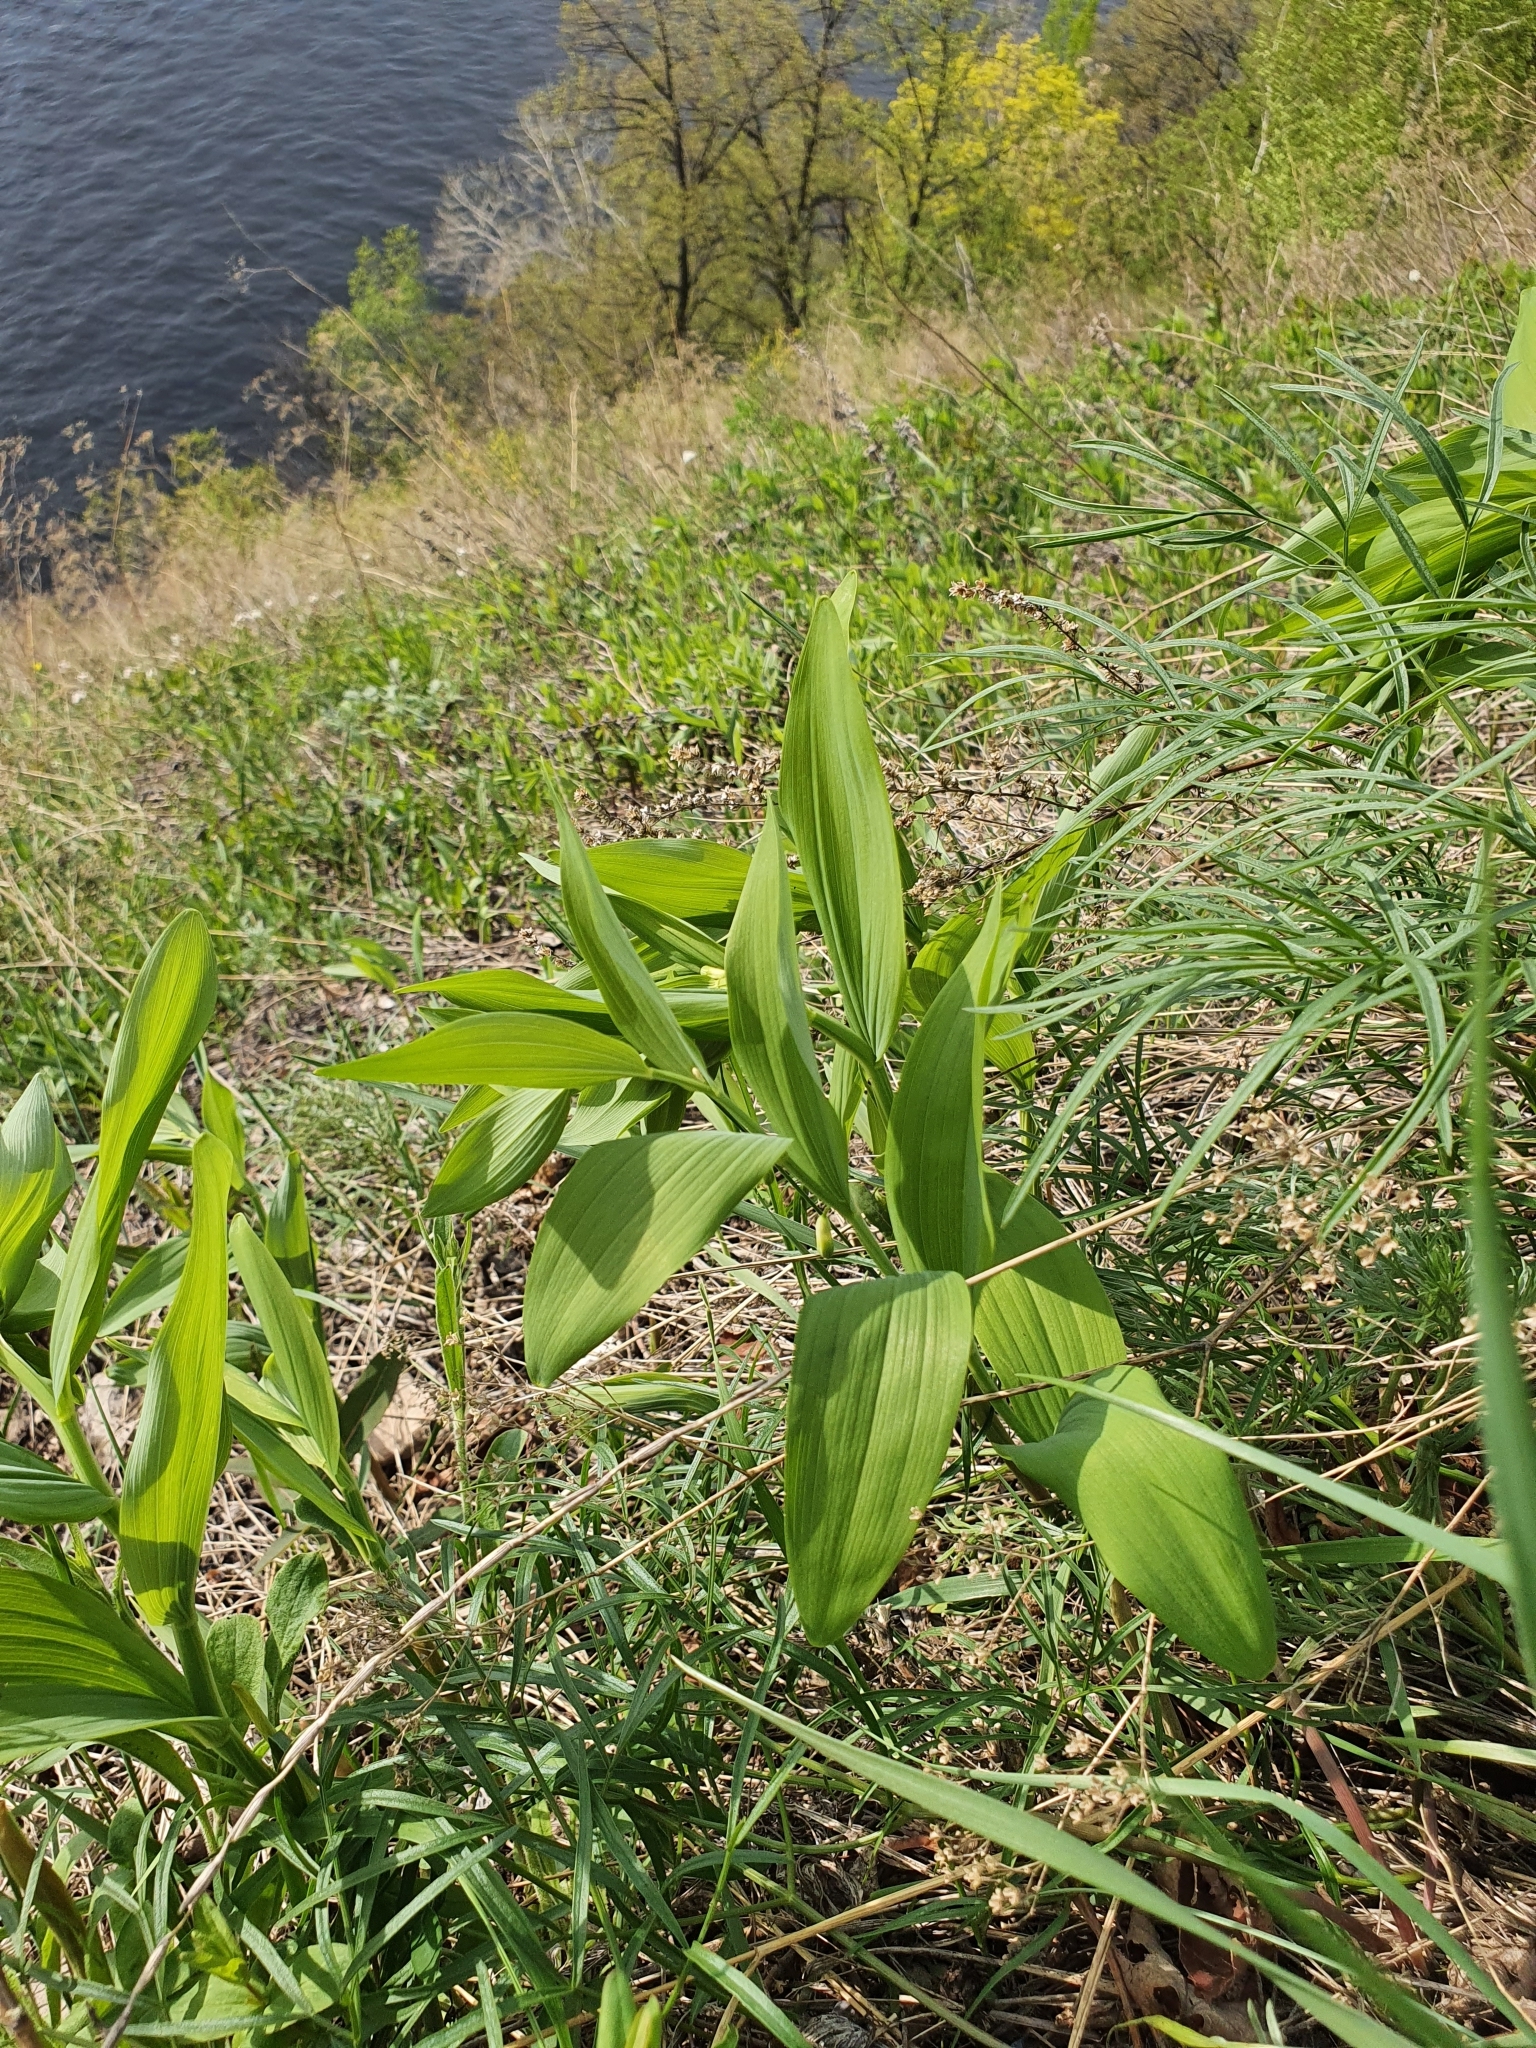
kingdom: Plantae
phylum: Tracheophyta
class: Liliopsida
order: Asparagales
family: Asparagaceae
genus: Polygonatum
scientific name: Polygonatum odoratum
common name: Angular solomon's-seal
